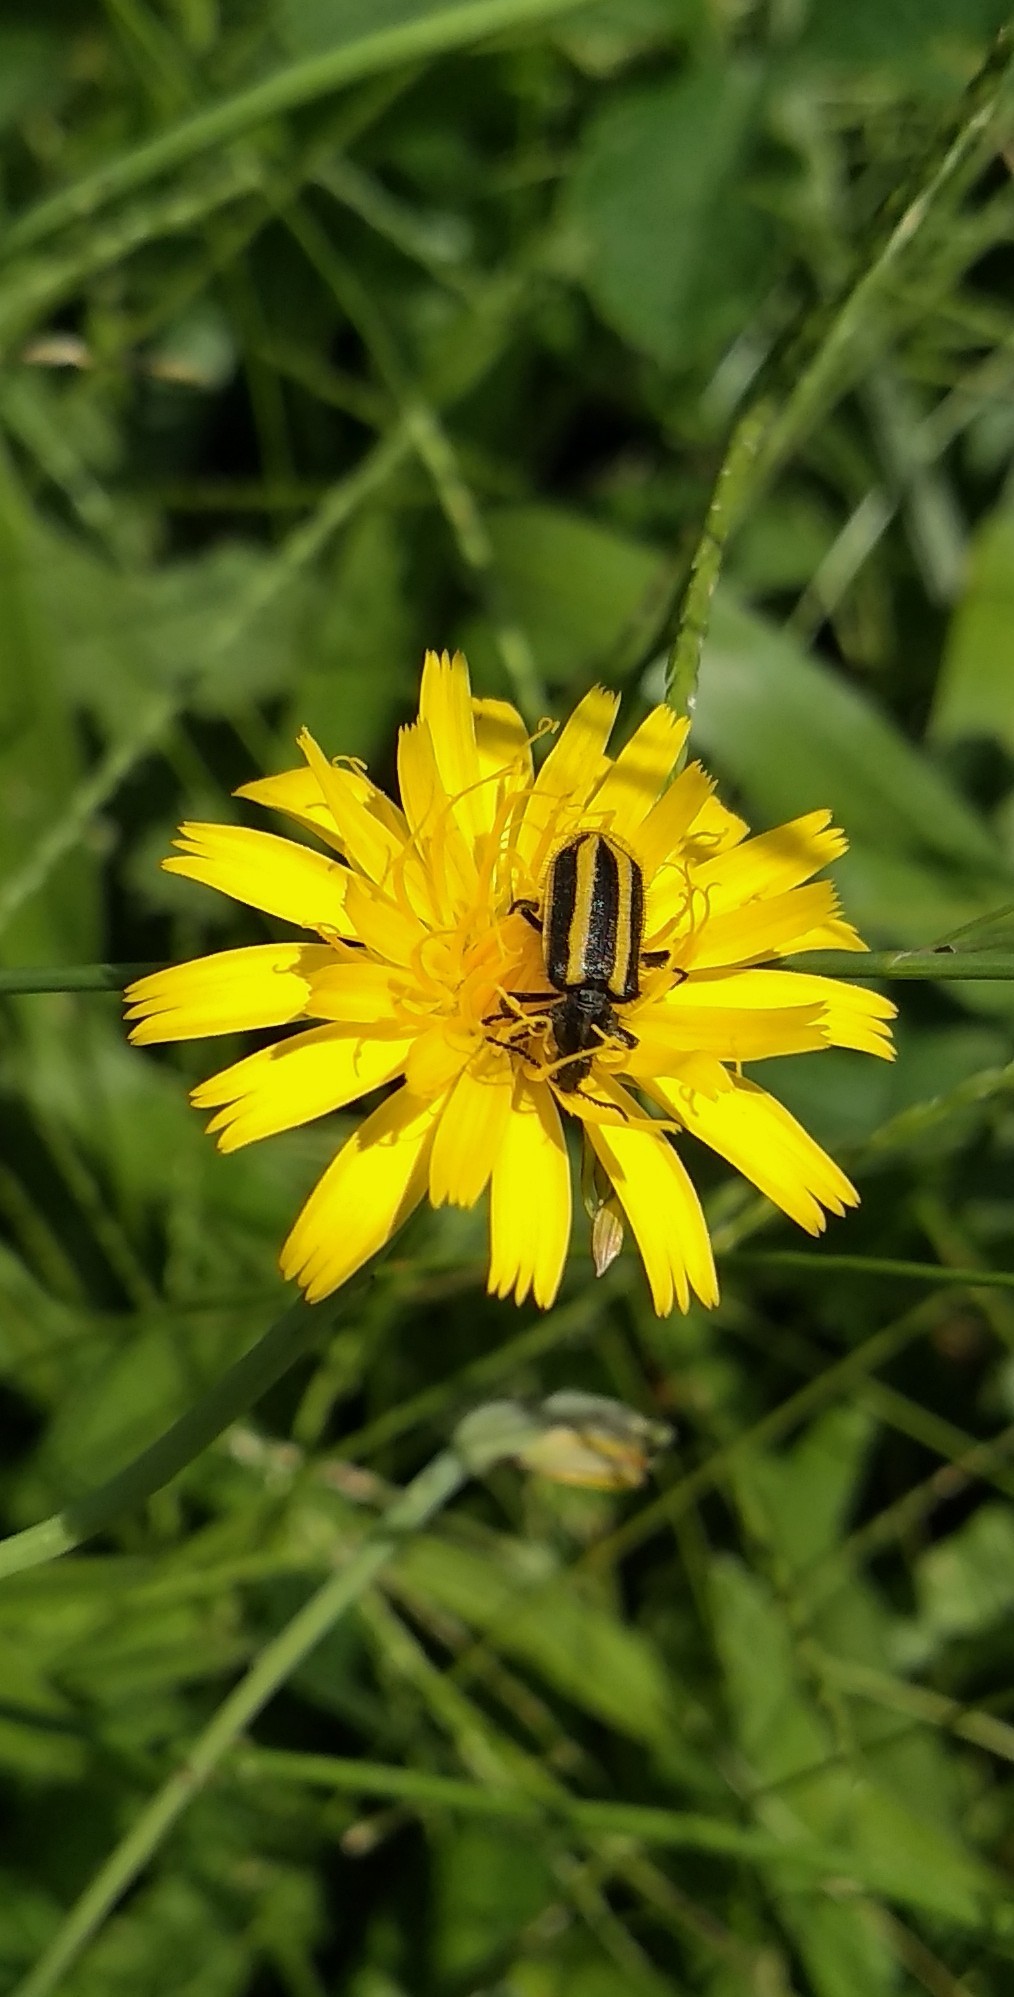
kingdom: Animalia
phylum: Arthropoda
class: Insecta
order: Coleoptera
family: Melyridae
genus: Astylus
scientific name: Astylus vittaticollis
